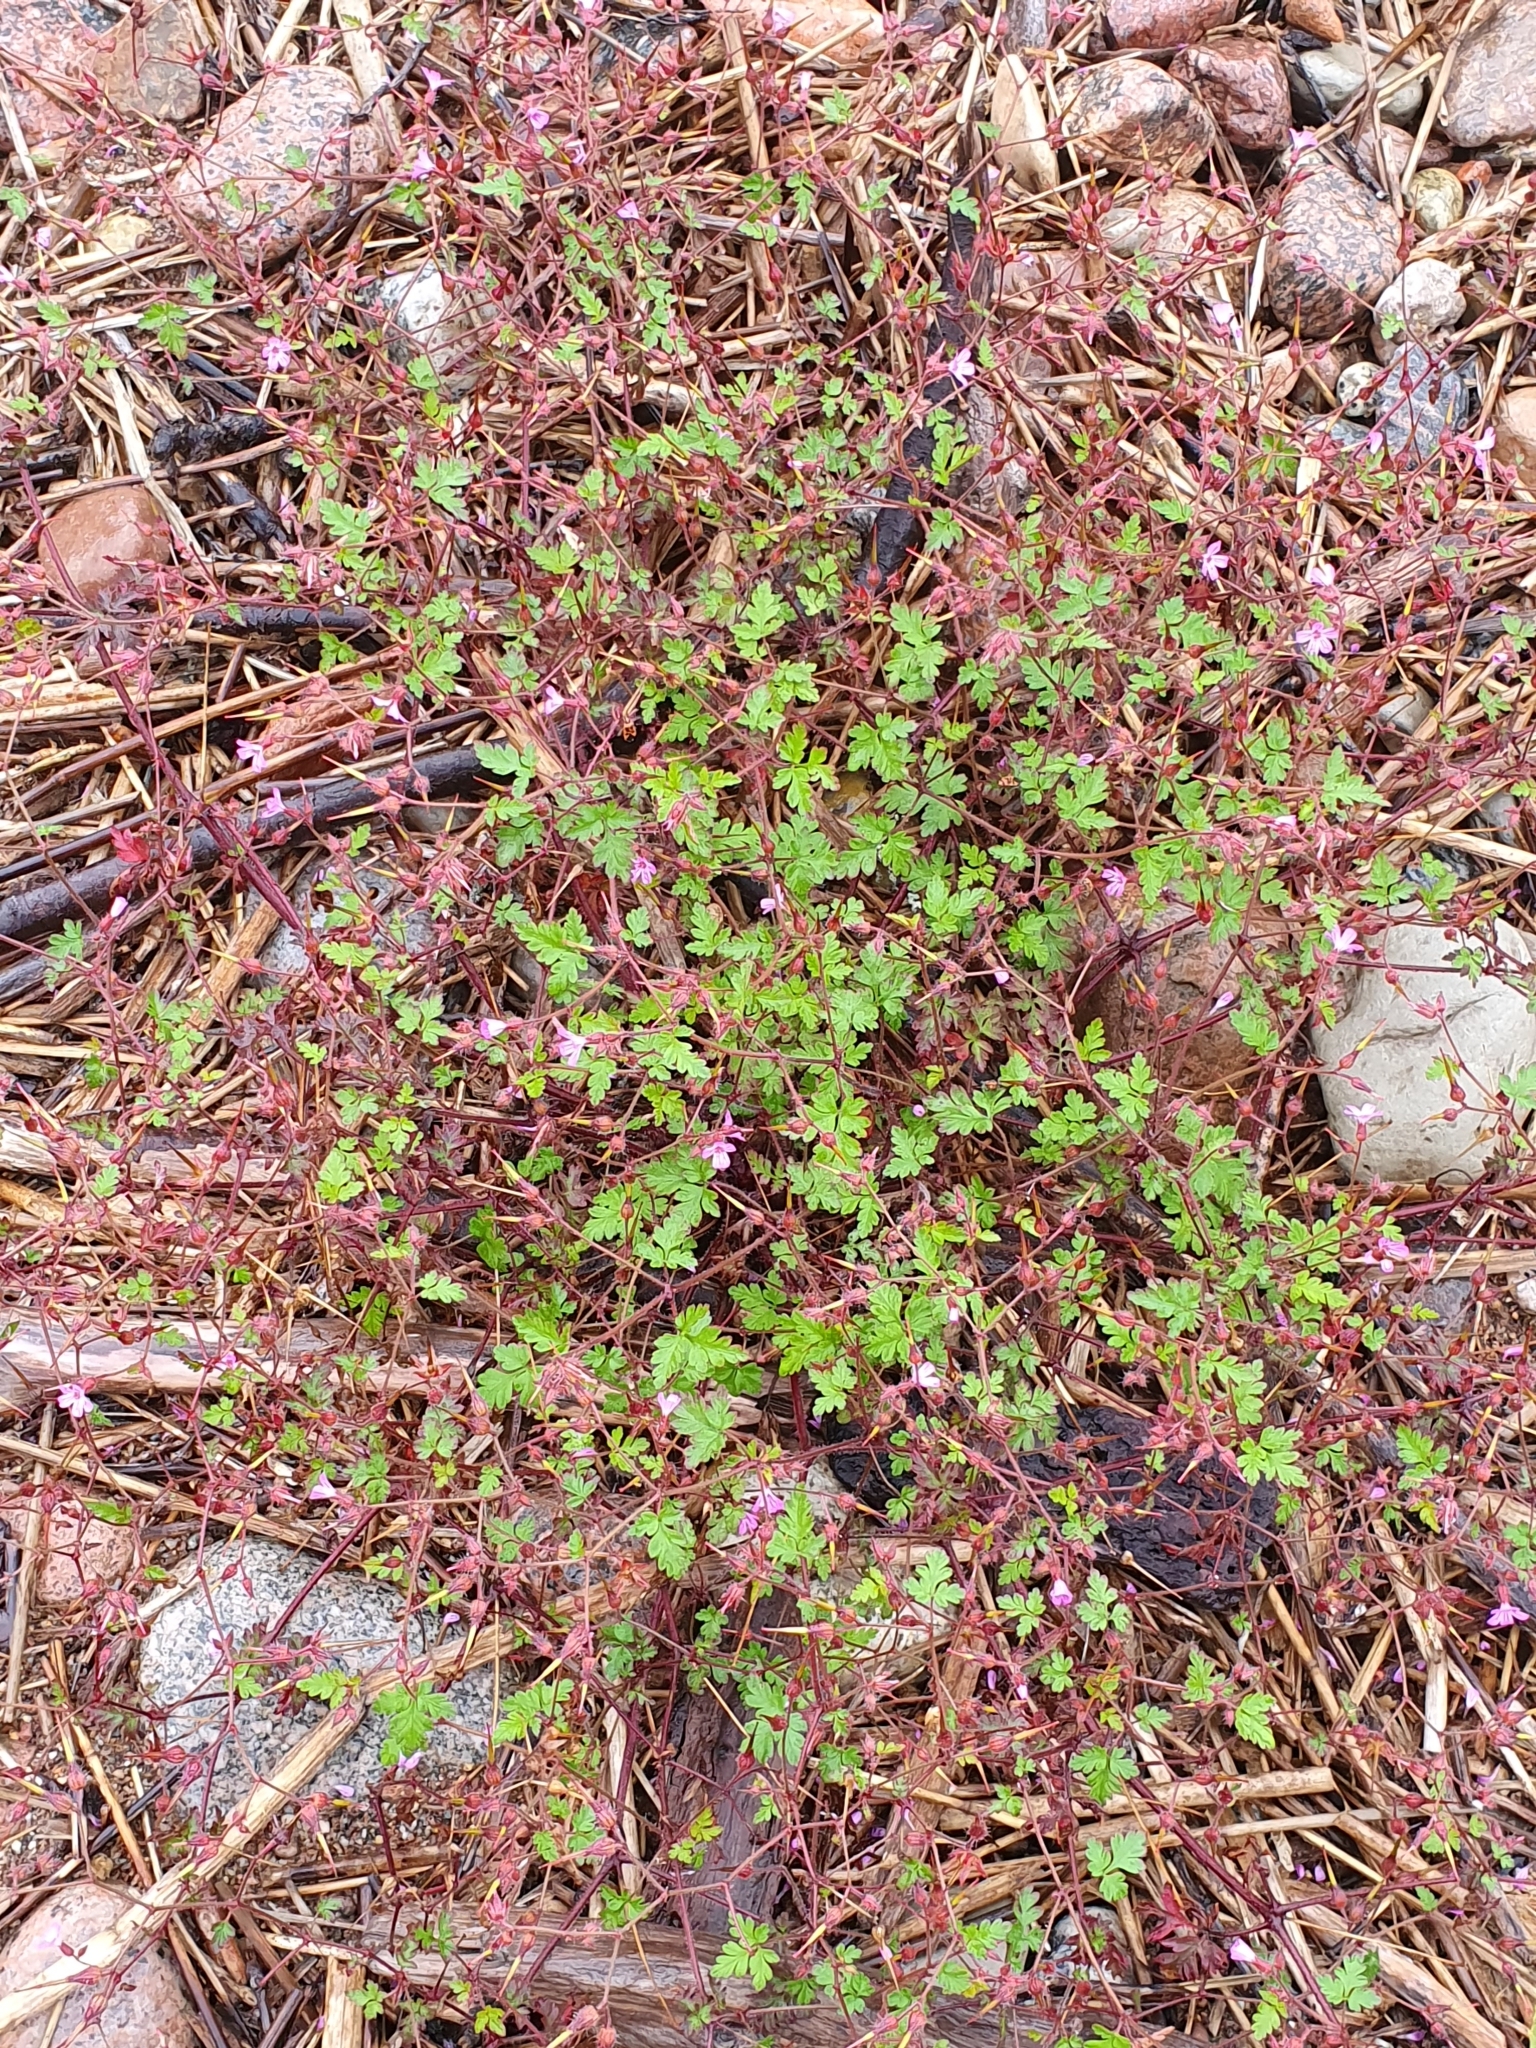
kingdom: Plantae
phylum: Tracheophyta
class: Magnoliopsida
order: Geraniales
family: Geraniaceae
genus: Geranium
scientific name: Geranium robertianum
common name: Herb-robert
